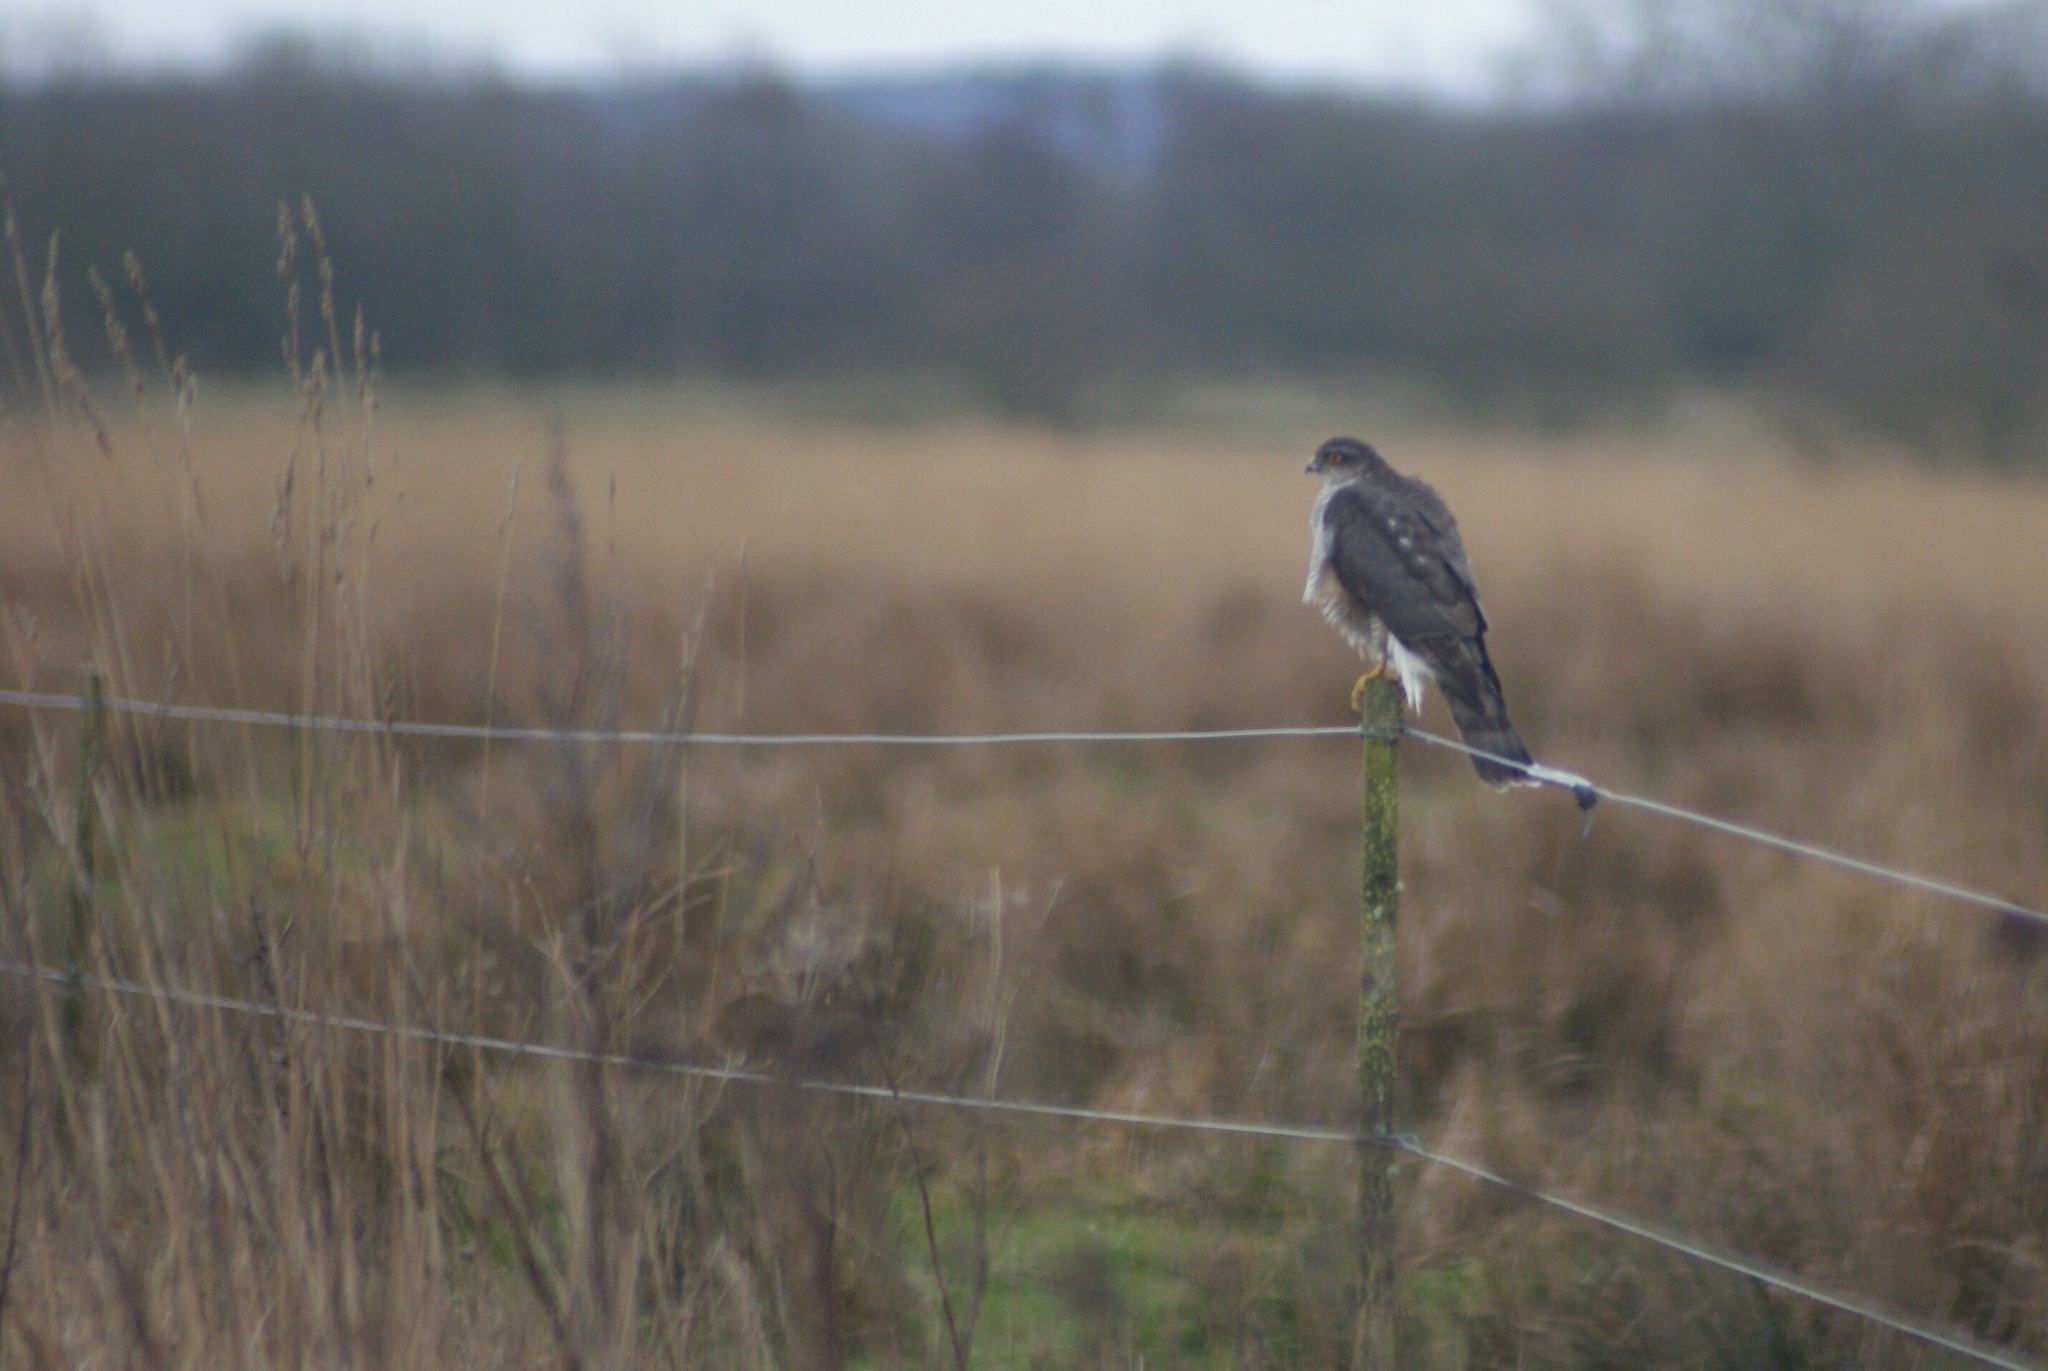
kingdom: Animalia
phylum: Chordata
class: Aves
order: Accipitriformes
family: Accipitridae
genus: Accipiter
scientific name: Accipiter nisus
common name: Eurasian sparrowhawk
